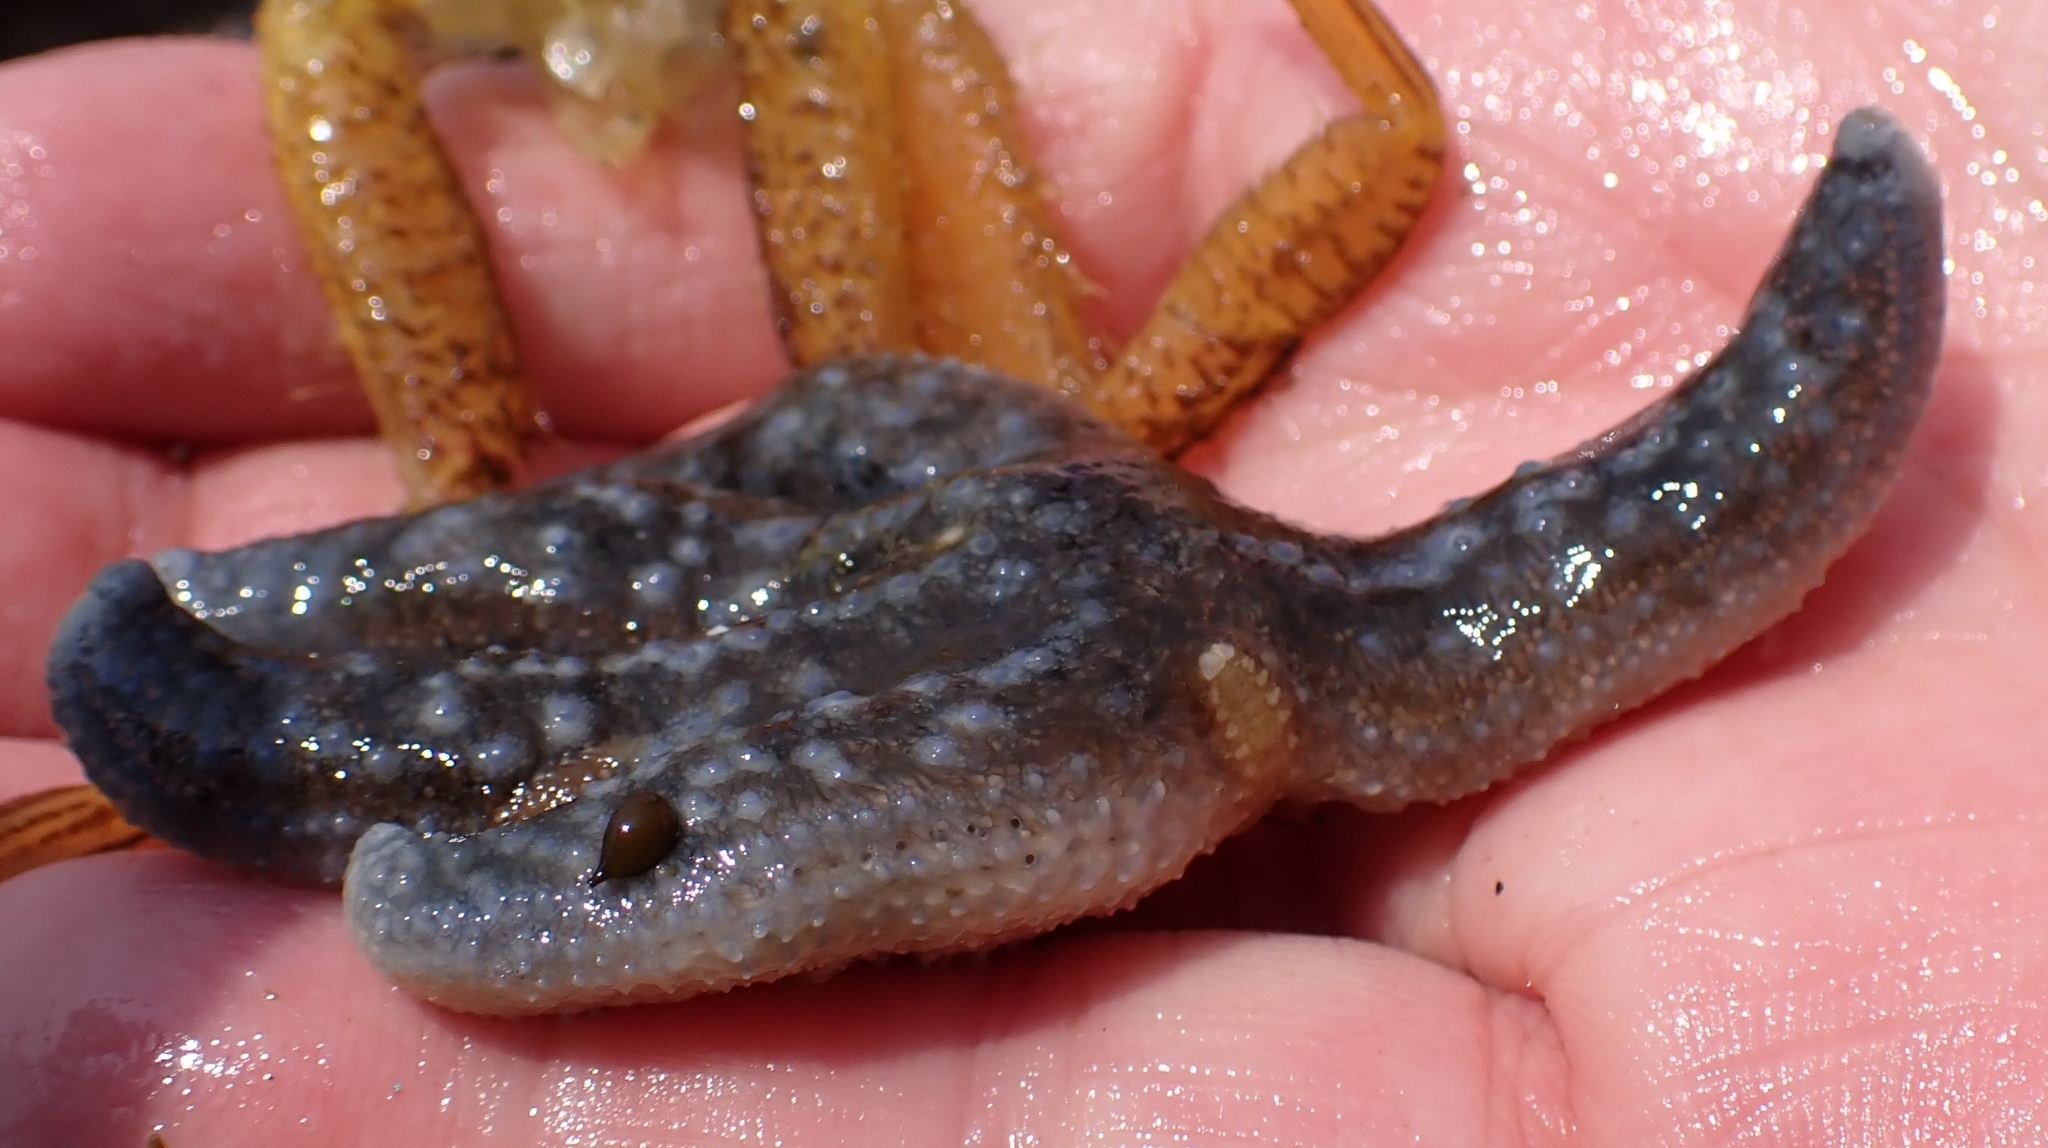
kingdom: Animalia
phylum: Echinodermata
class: Asteroidea
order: Forcipulatida
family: Asteriidae
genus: Evasterias
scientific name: Evasterias troschelii
